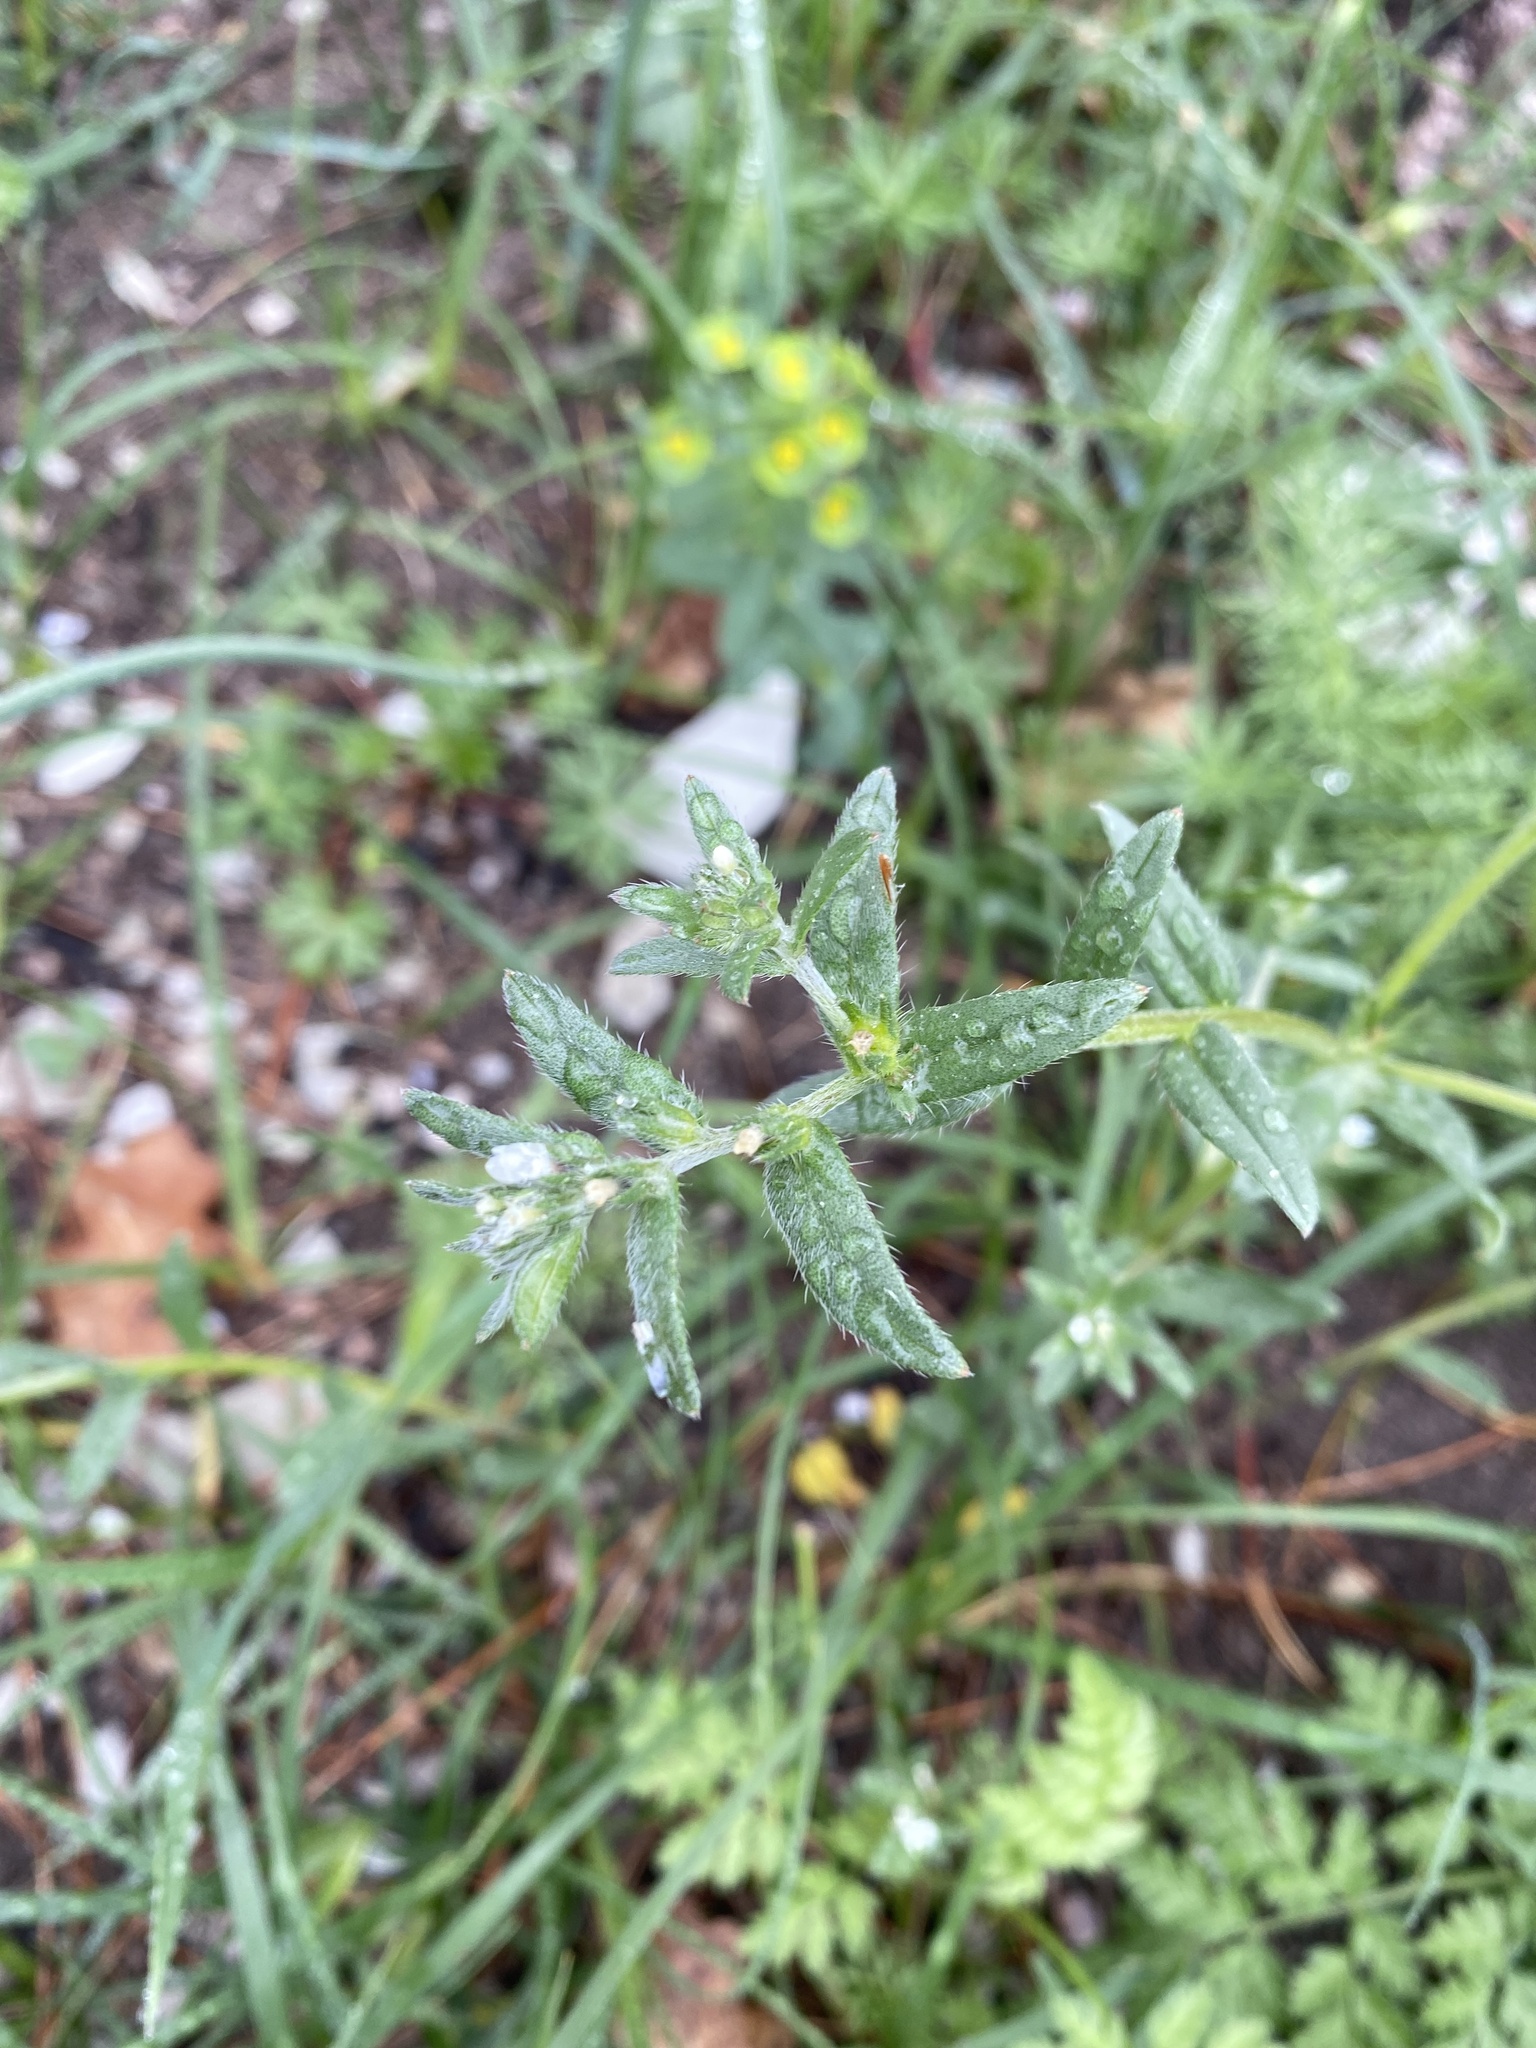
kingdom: Plantae
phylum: Tracheophyta
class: Magnoliopsida
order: Boraginales
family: Boraginaceae
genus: Buglossoides
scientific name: Buglossoides arvensis
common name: Corn gromwell
